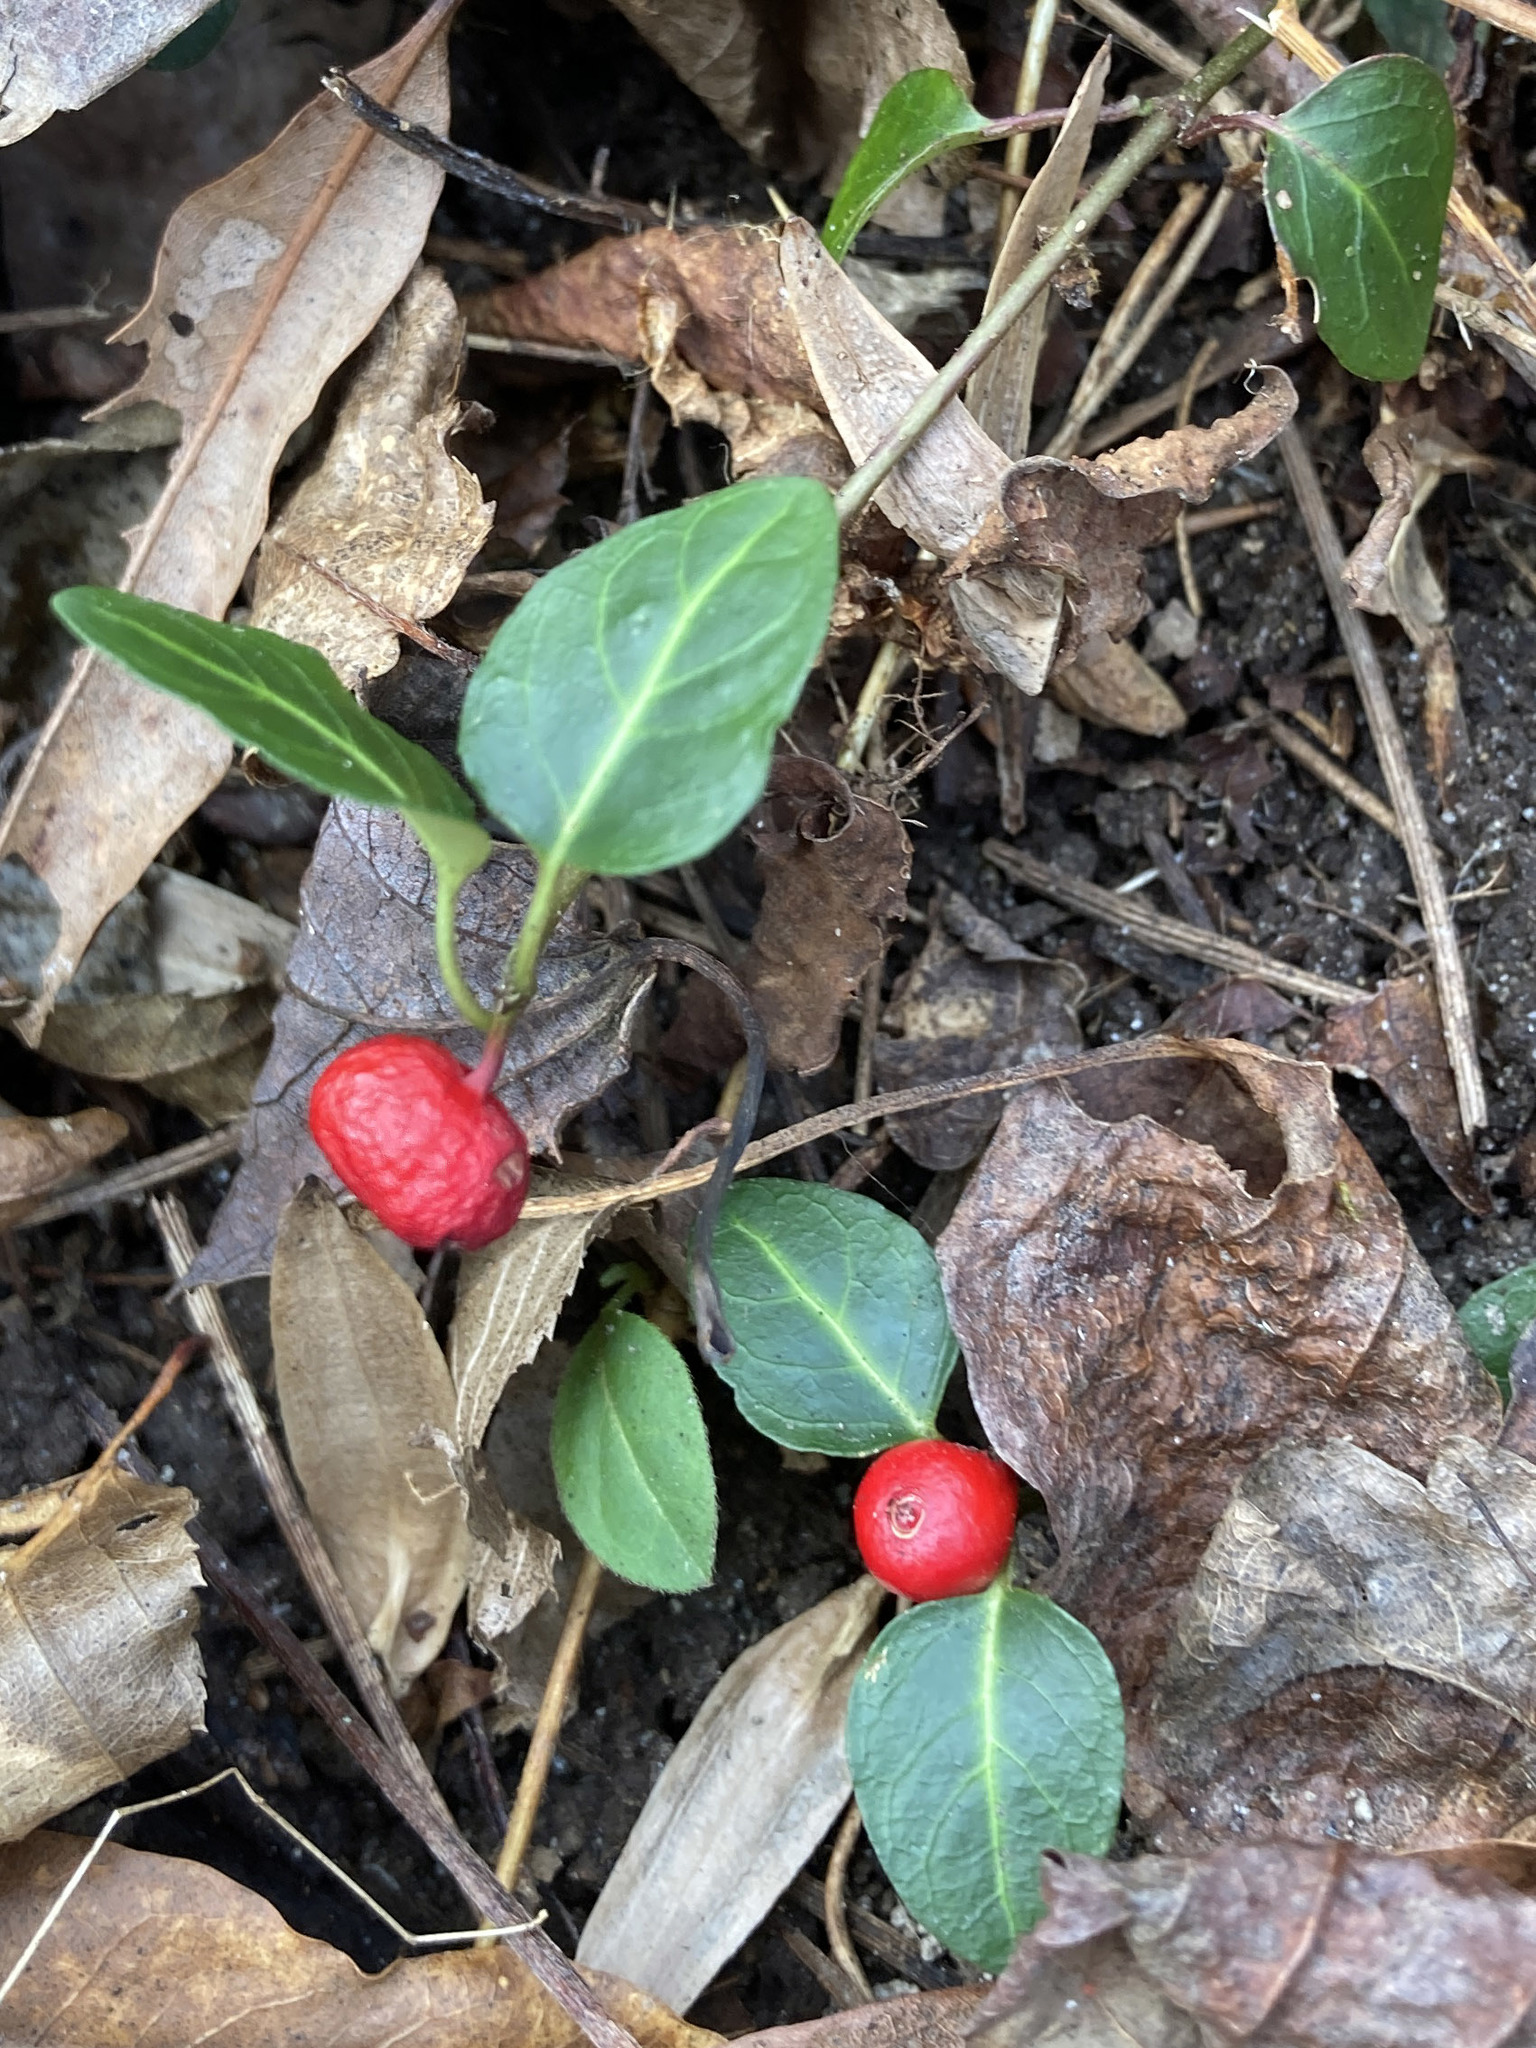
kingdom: Plantae
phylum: Tracheophyta
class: Magnoliopsida
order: Gentianales
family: Rubiaceae
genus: Mitchella
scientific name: Mitchella repens
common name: Partridge-berry
